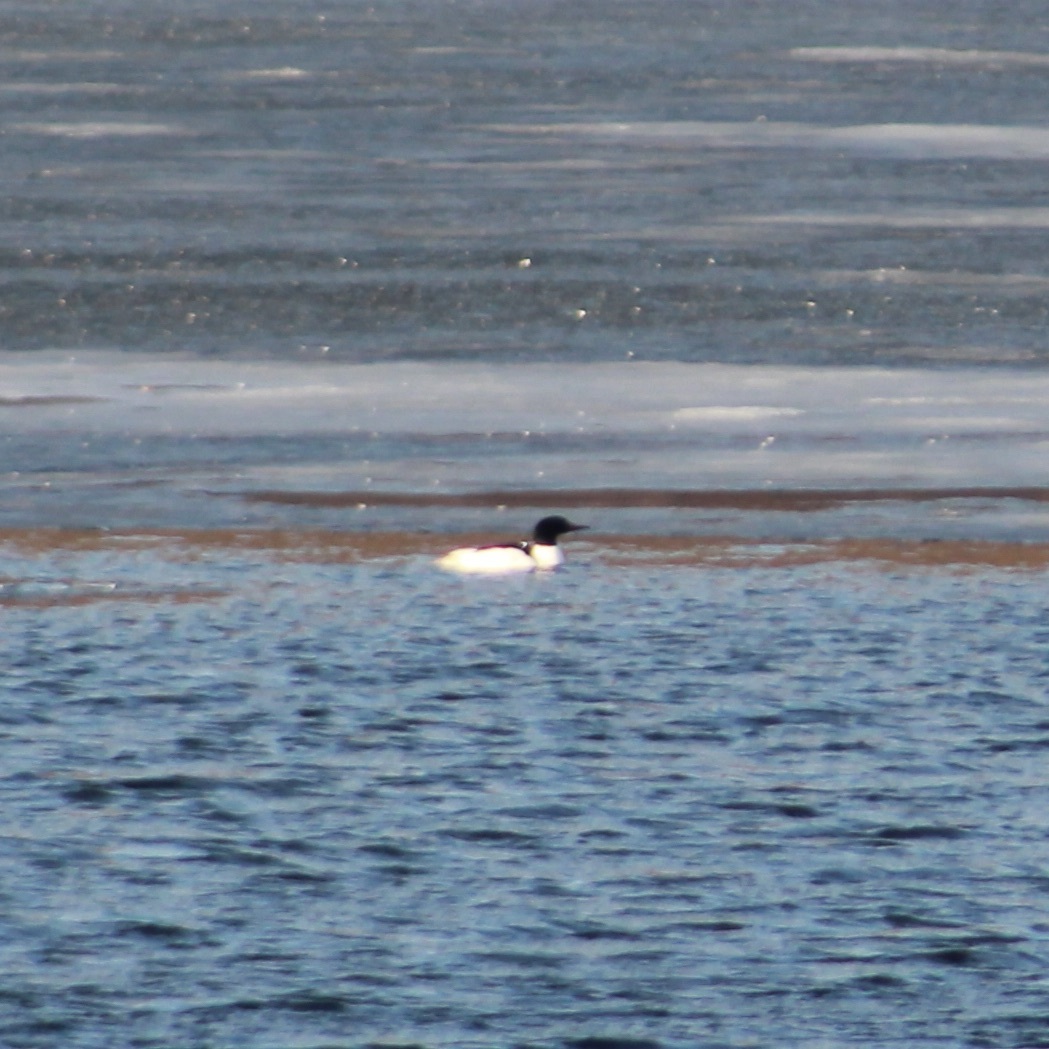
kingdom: Animalia
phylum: Chordata
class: Aves
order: Anseriformes
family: Anatidae
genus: Mergus
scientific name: Mergus merganser
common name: Common merganser
